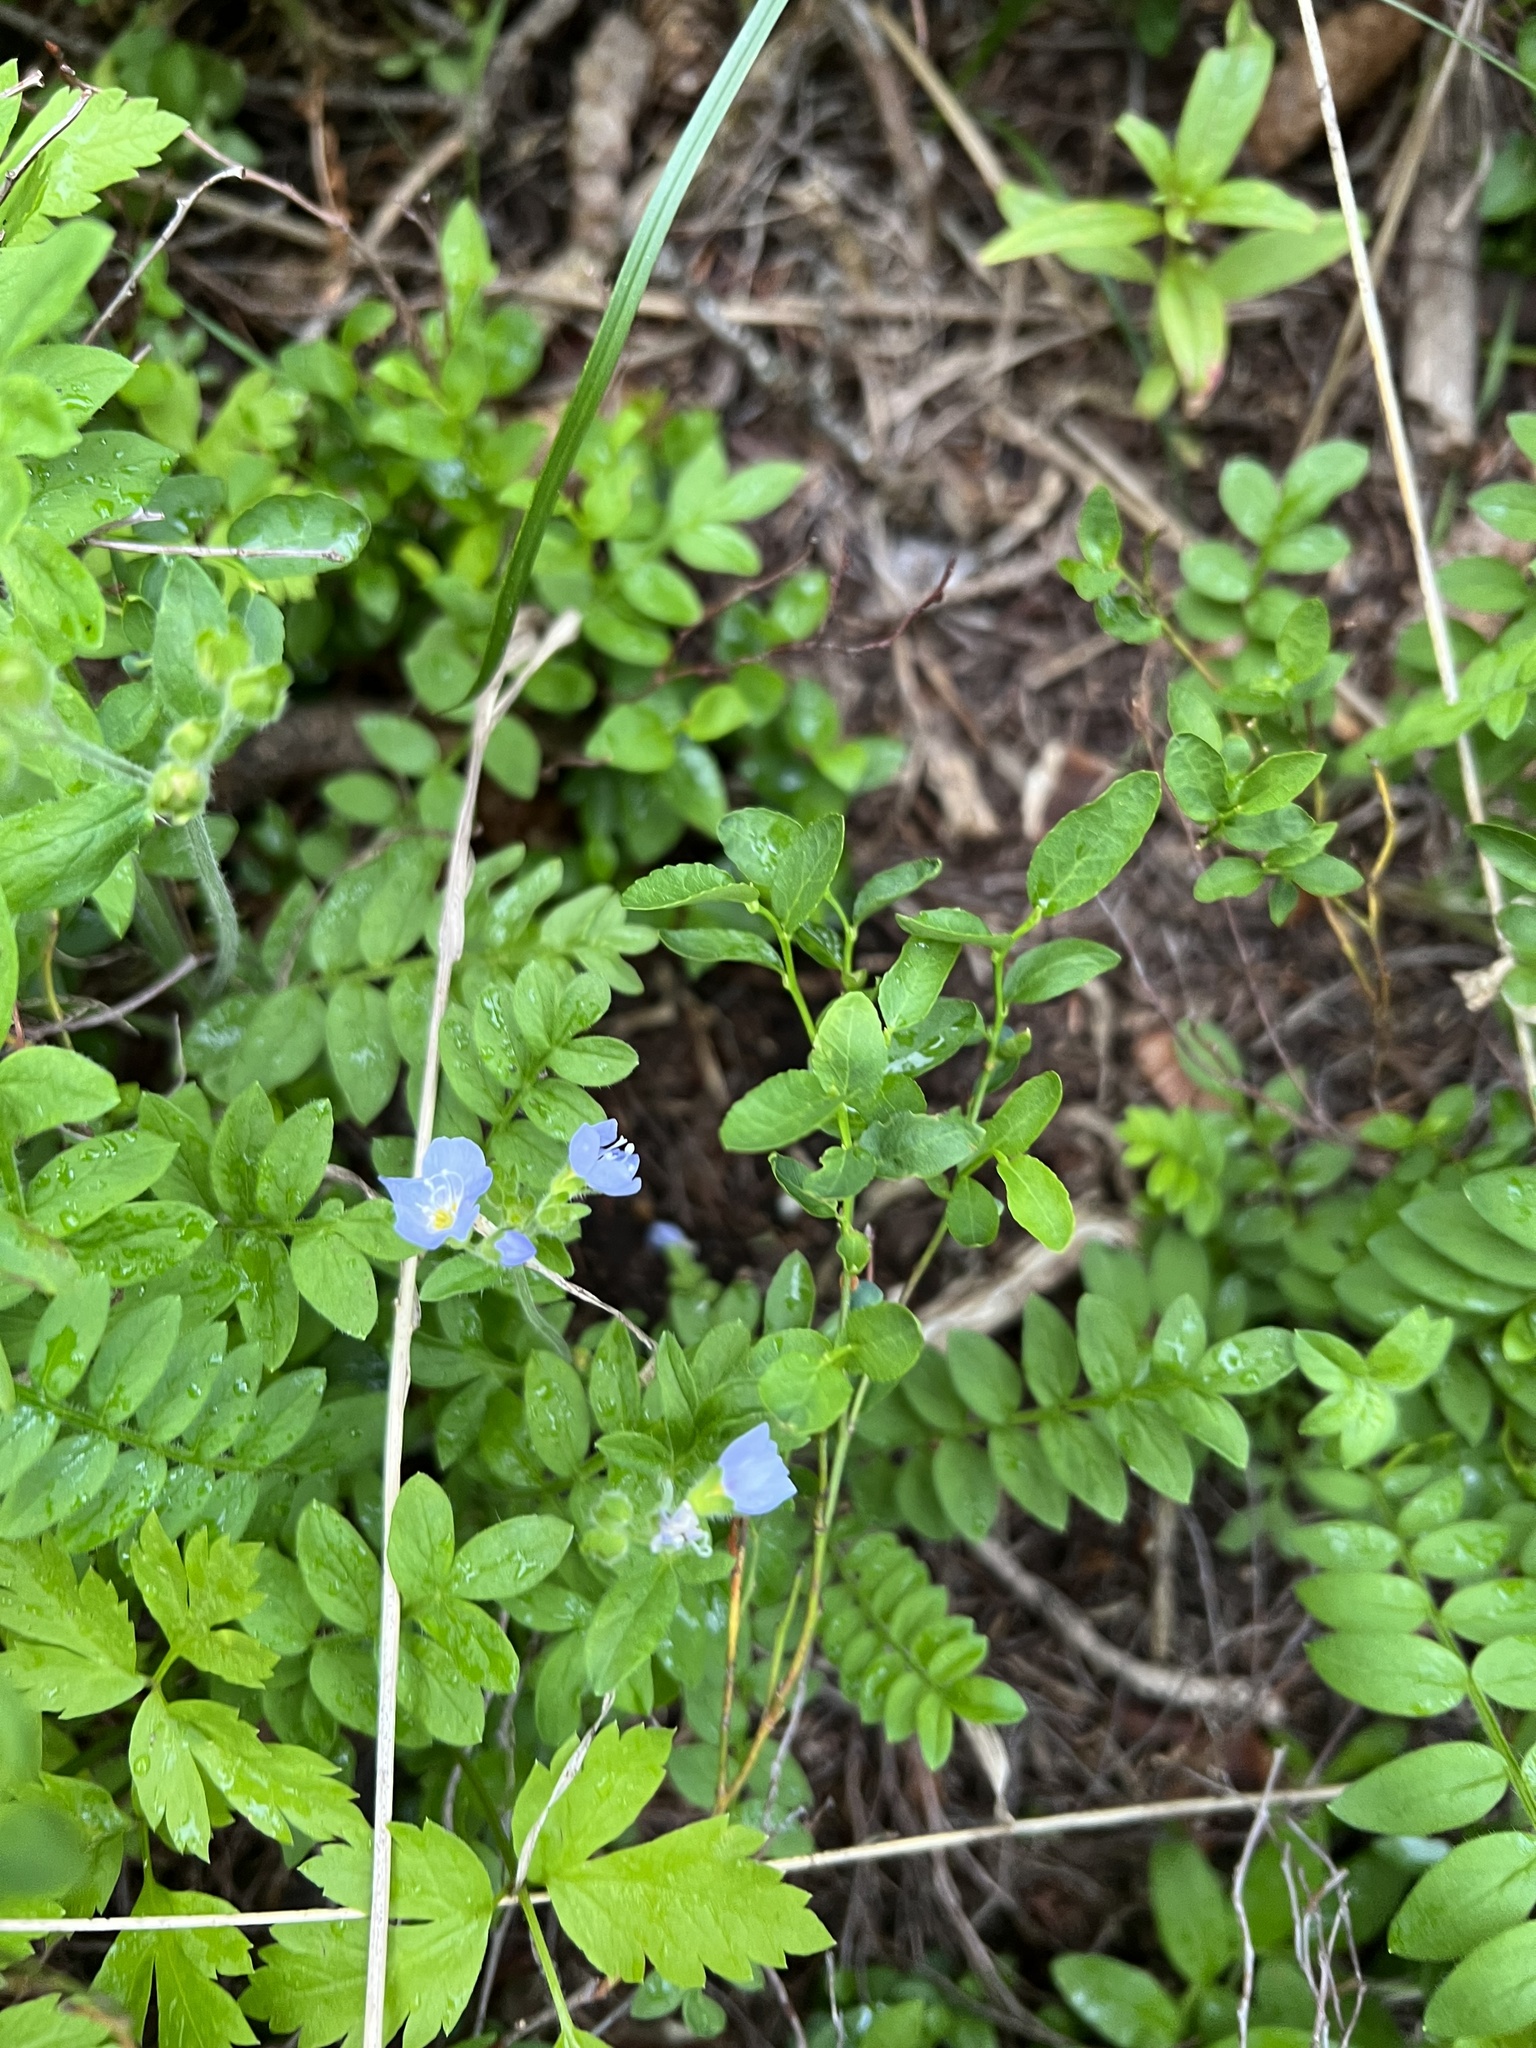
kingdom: Plantae
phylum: Tracheophyta
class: Magnoliopsida
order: Ericales
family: Polemoniaceae
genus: Polemonium
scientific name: Polemonium pulcherrimum
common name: Short jacob's-ladder
